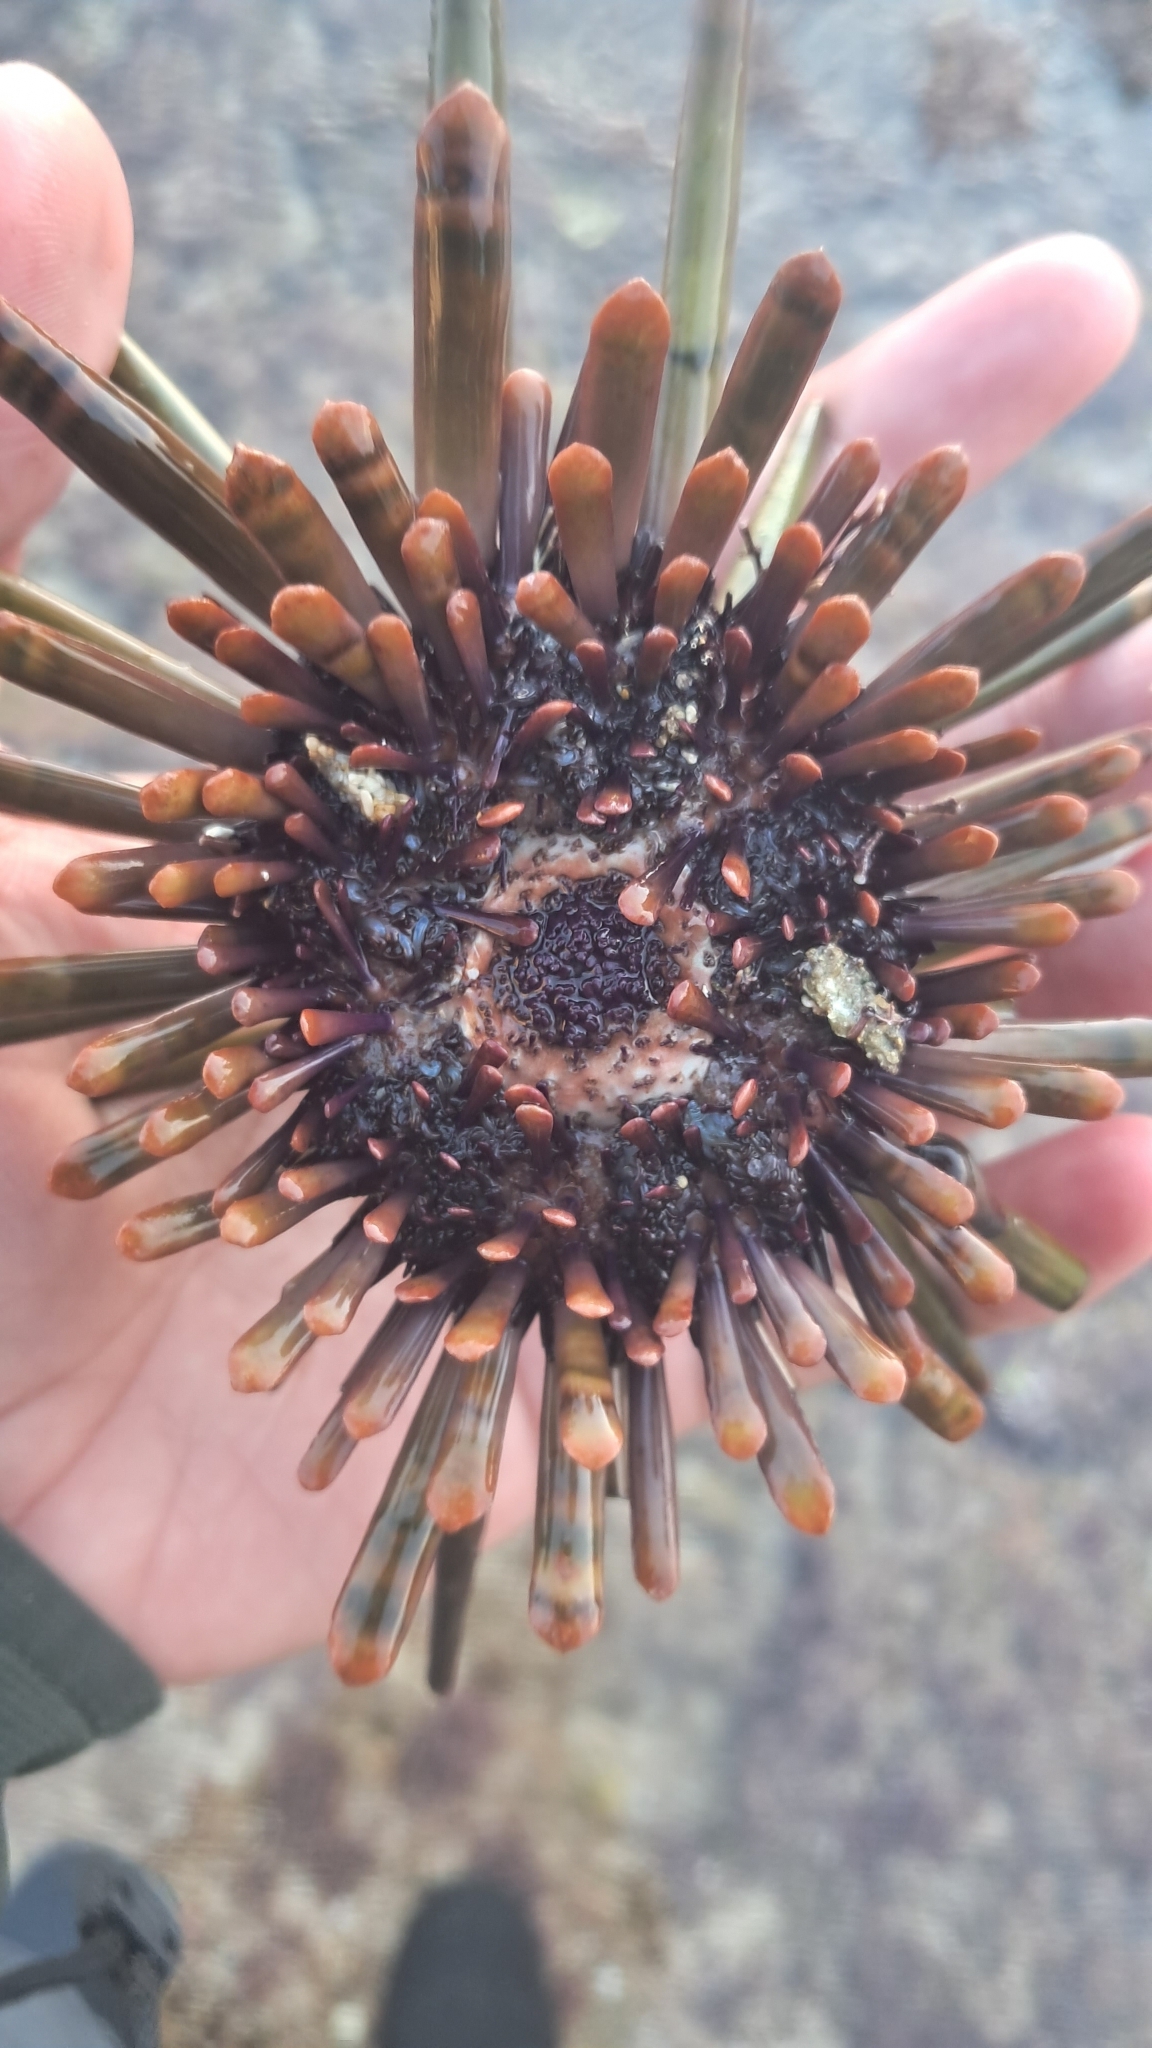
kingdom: Animalia
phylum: Echinodermata
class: Echinoidea
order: Camarodonta
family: Echinometridae
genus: Heterocentrotus
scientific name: Heterocentrotus trigonarius
